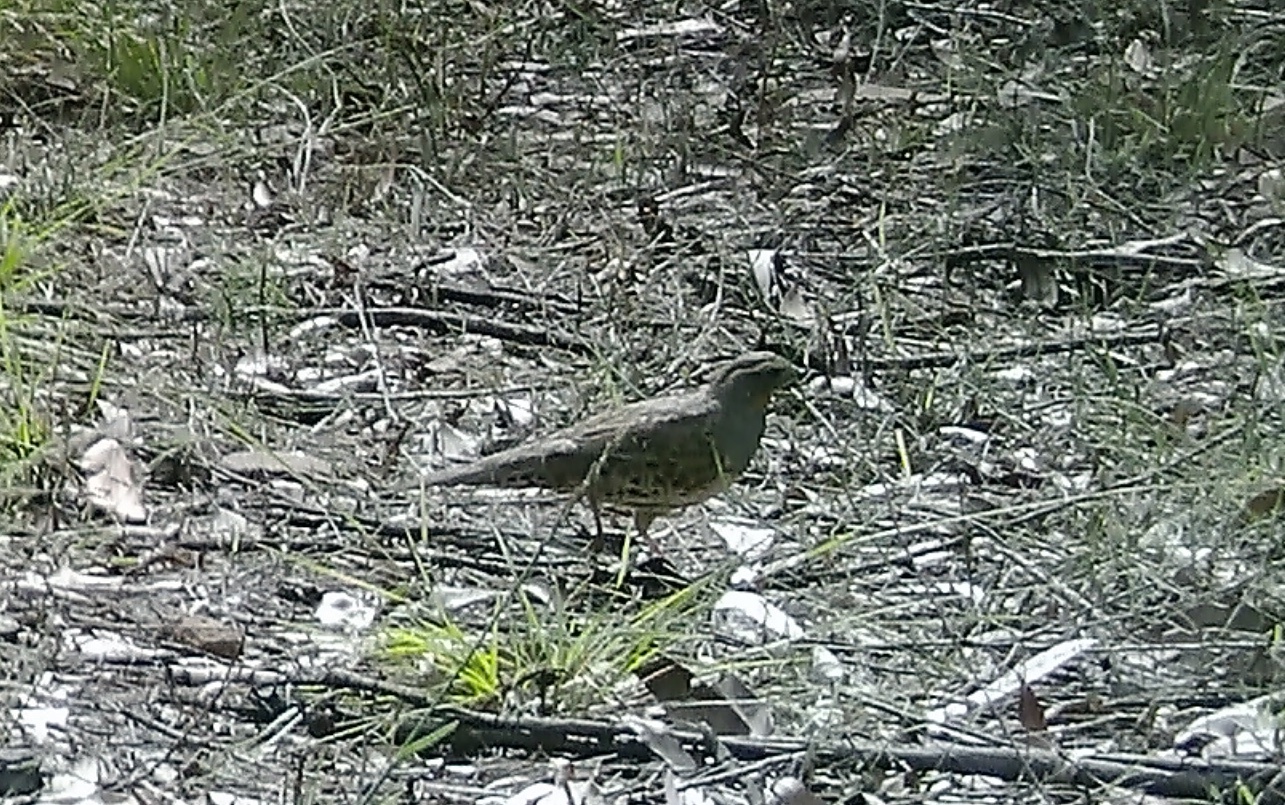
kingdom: Animalia
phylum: Chordata
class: Aves
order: Passeriformes
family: Psophodidae
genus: Cinclosoma
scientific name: Cinclosoma punctatum
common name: Spotted quail-thrush
